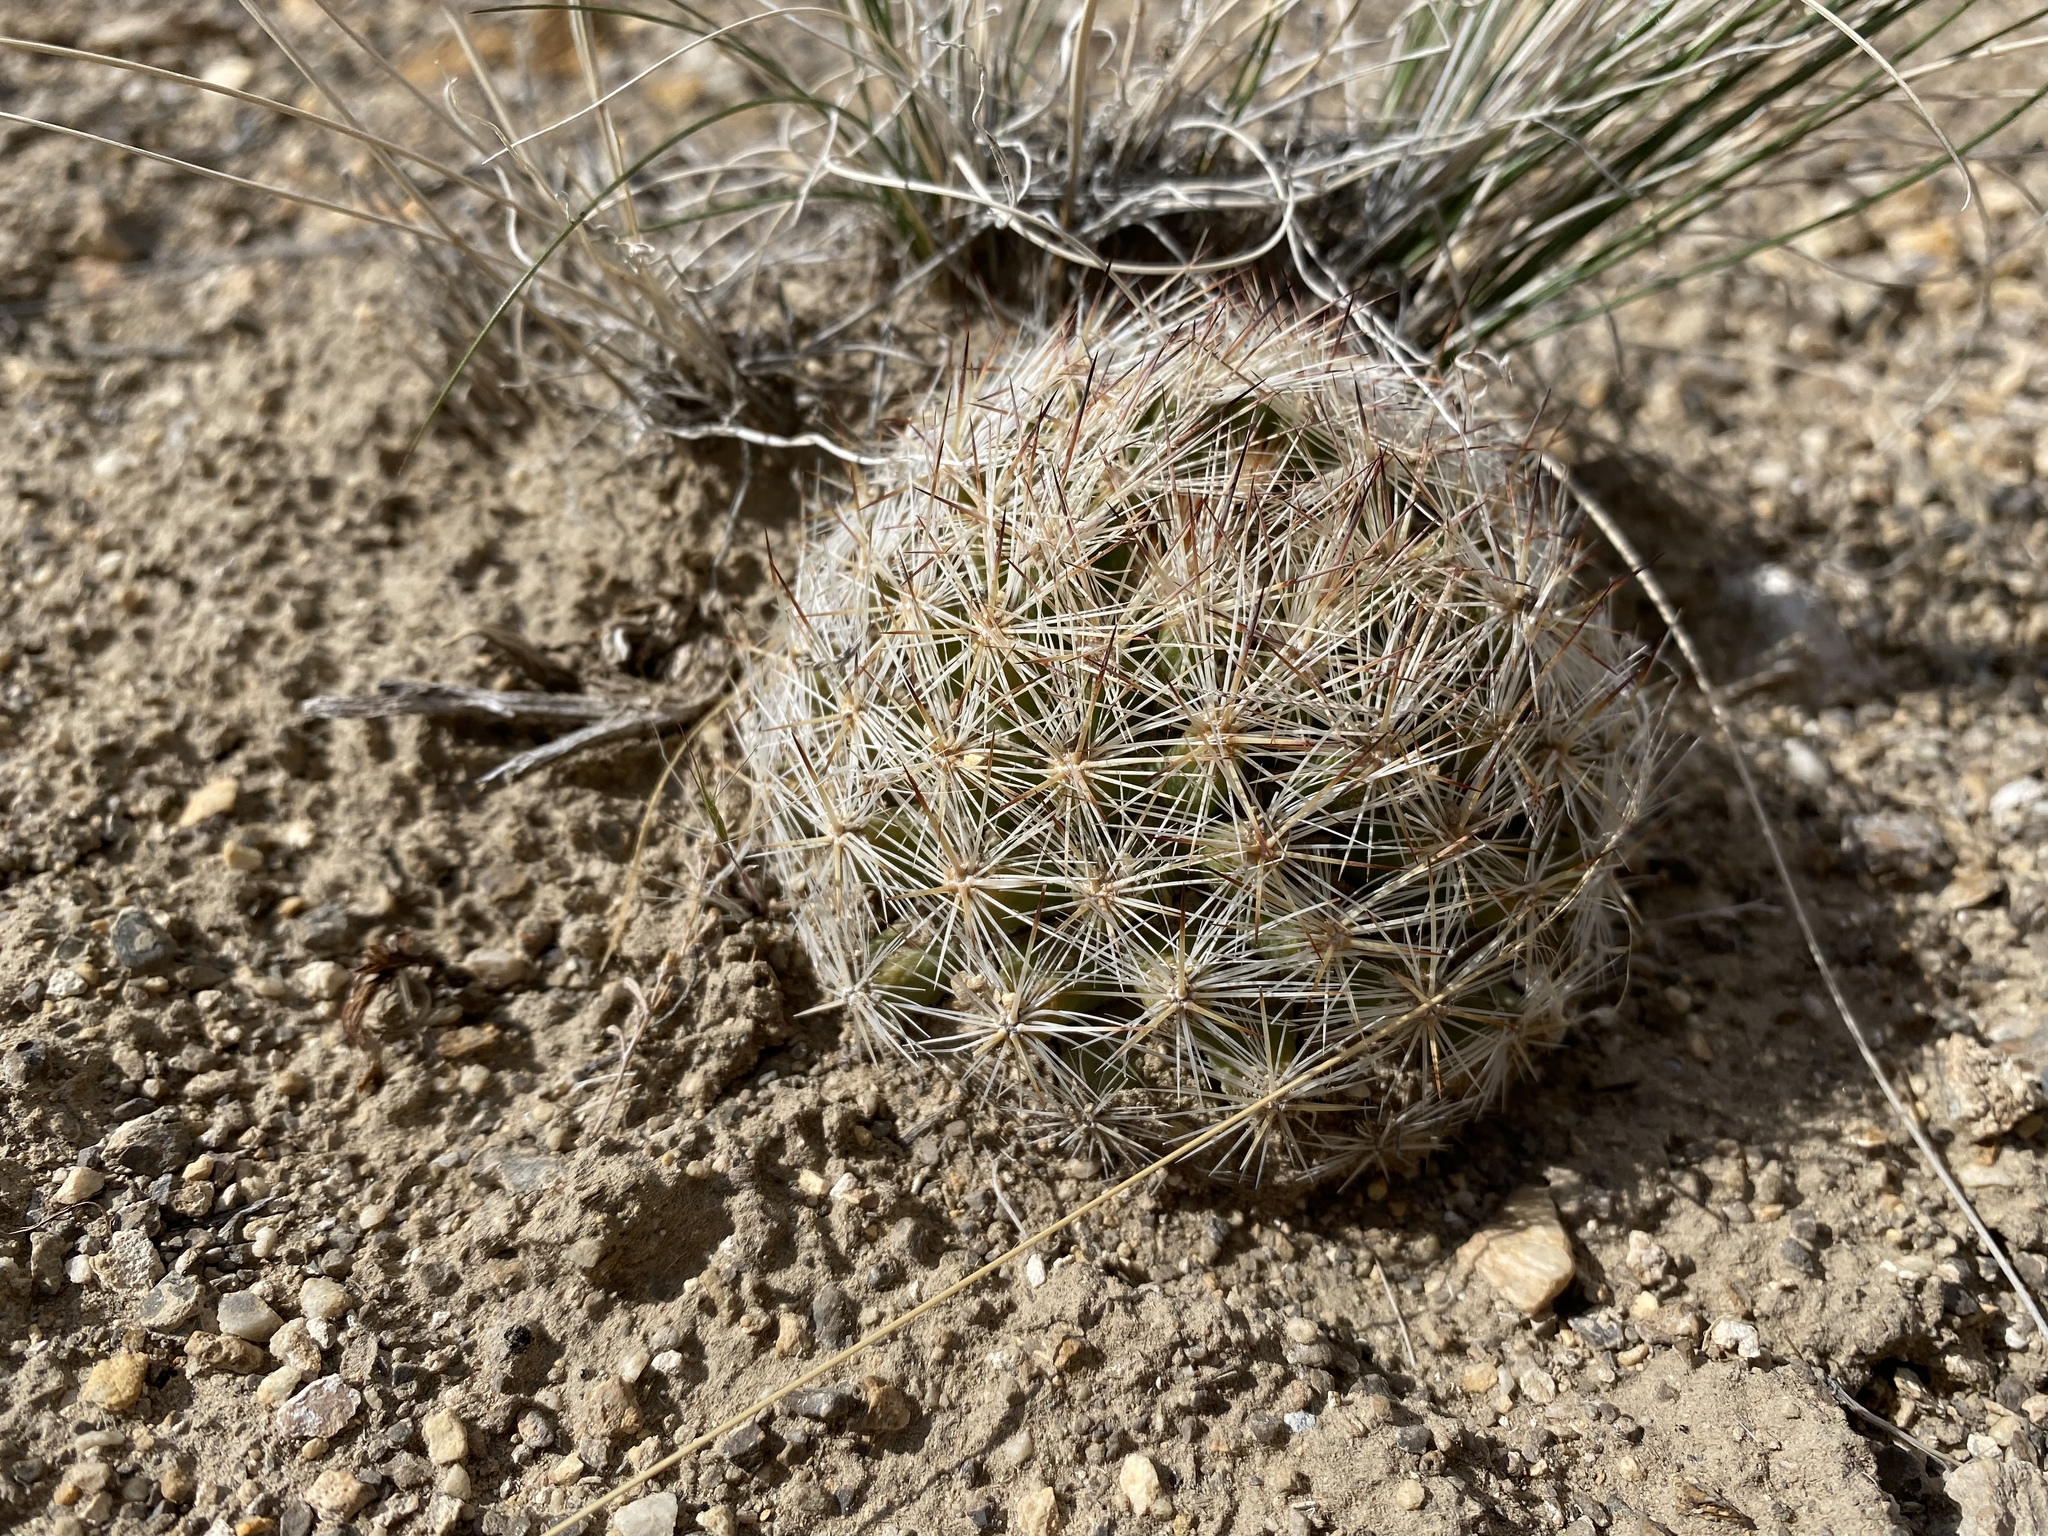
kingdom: Plantae
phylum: Tracheophyta
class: Magnoliopsida
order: Caryophyllales
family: Cactaceae
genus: Pelecyphora
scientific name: Pelecyphora vivipara
